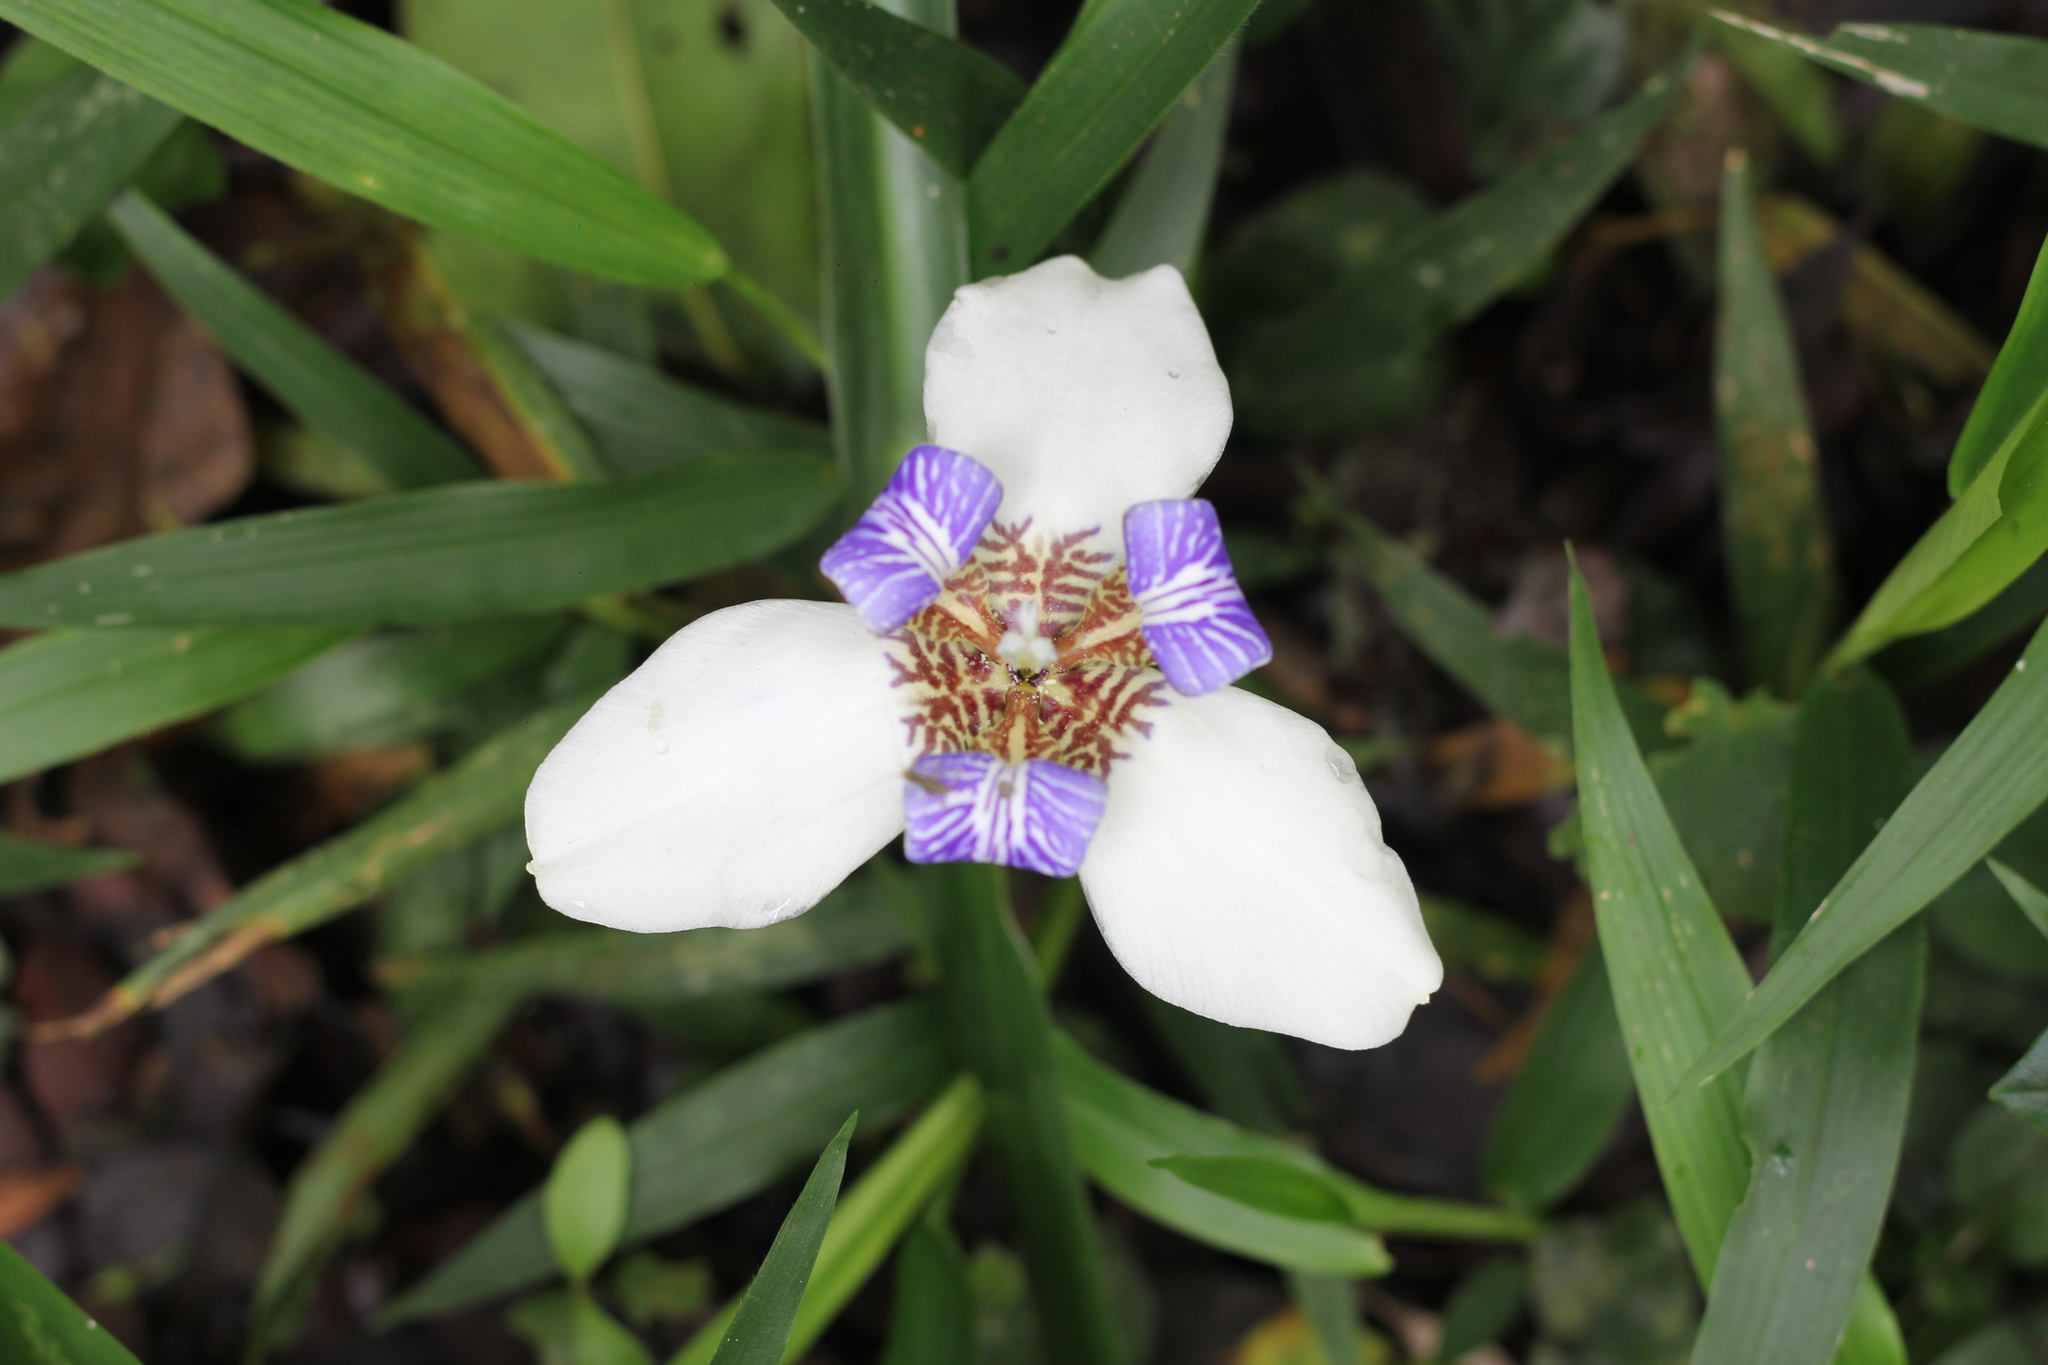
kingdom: Plantae
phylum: Tracheophyta
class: Liliopsida
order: Asparagales
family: Iridaceae
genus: Trimezia
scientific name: Trimezia candida
